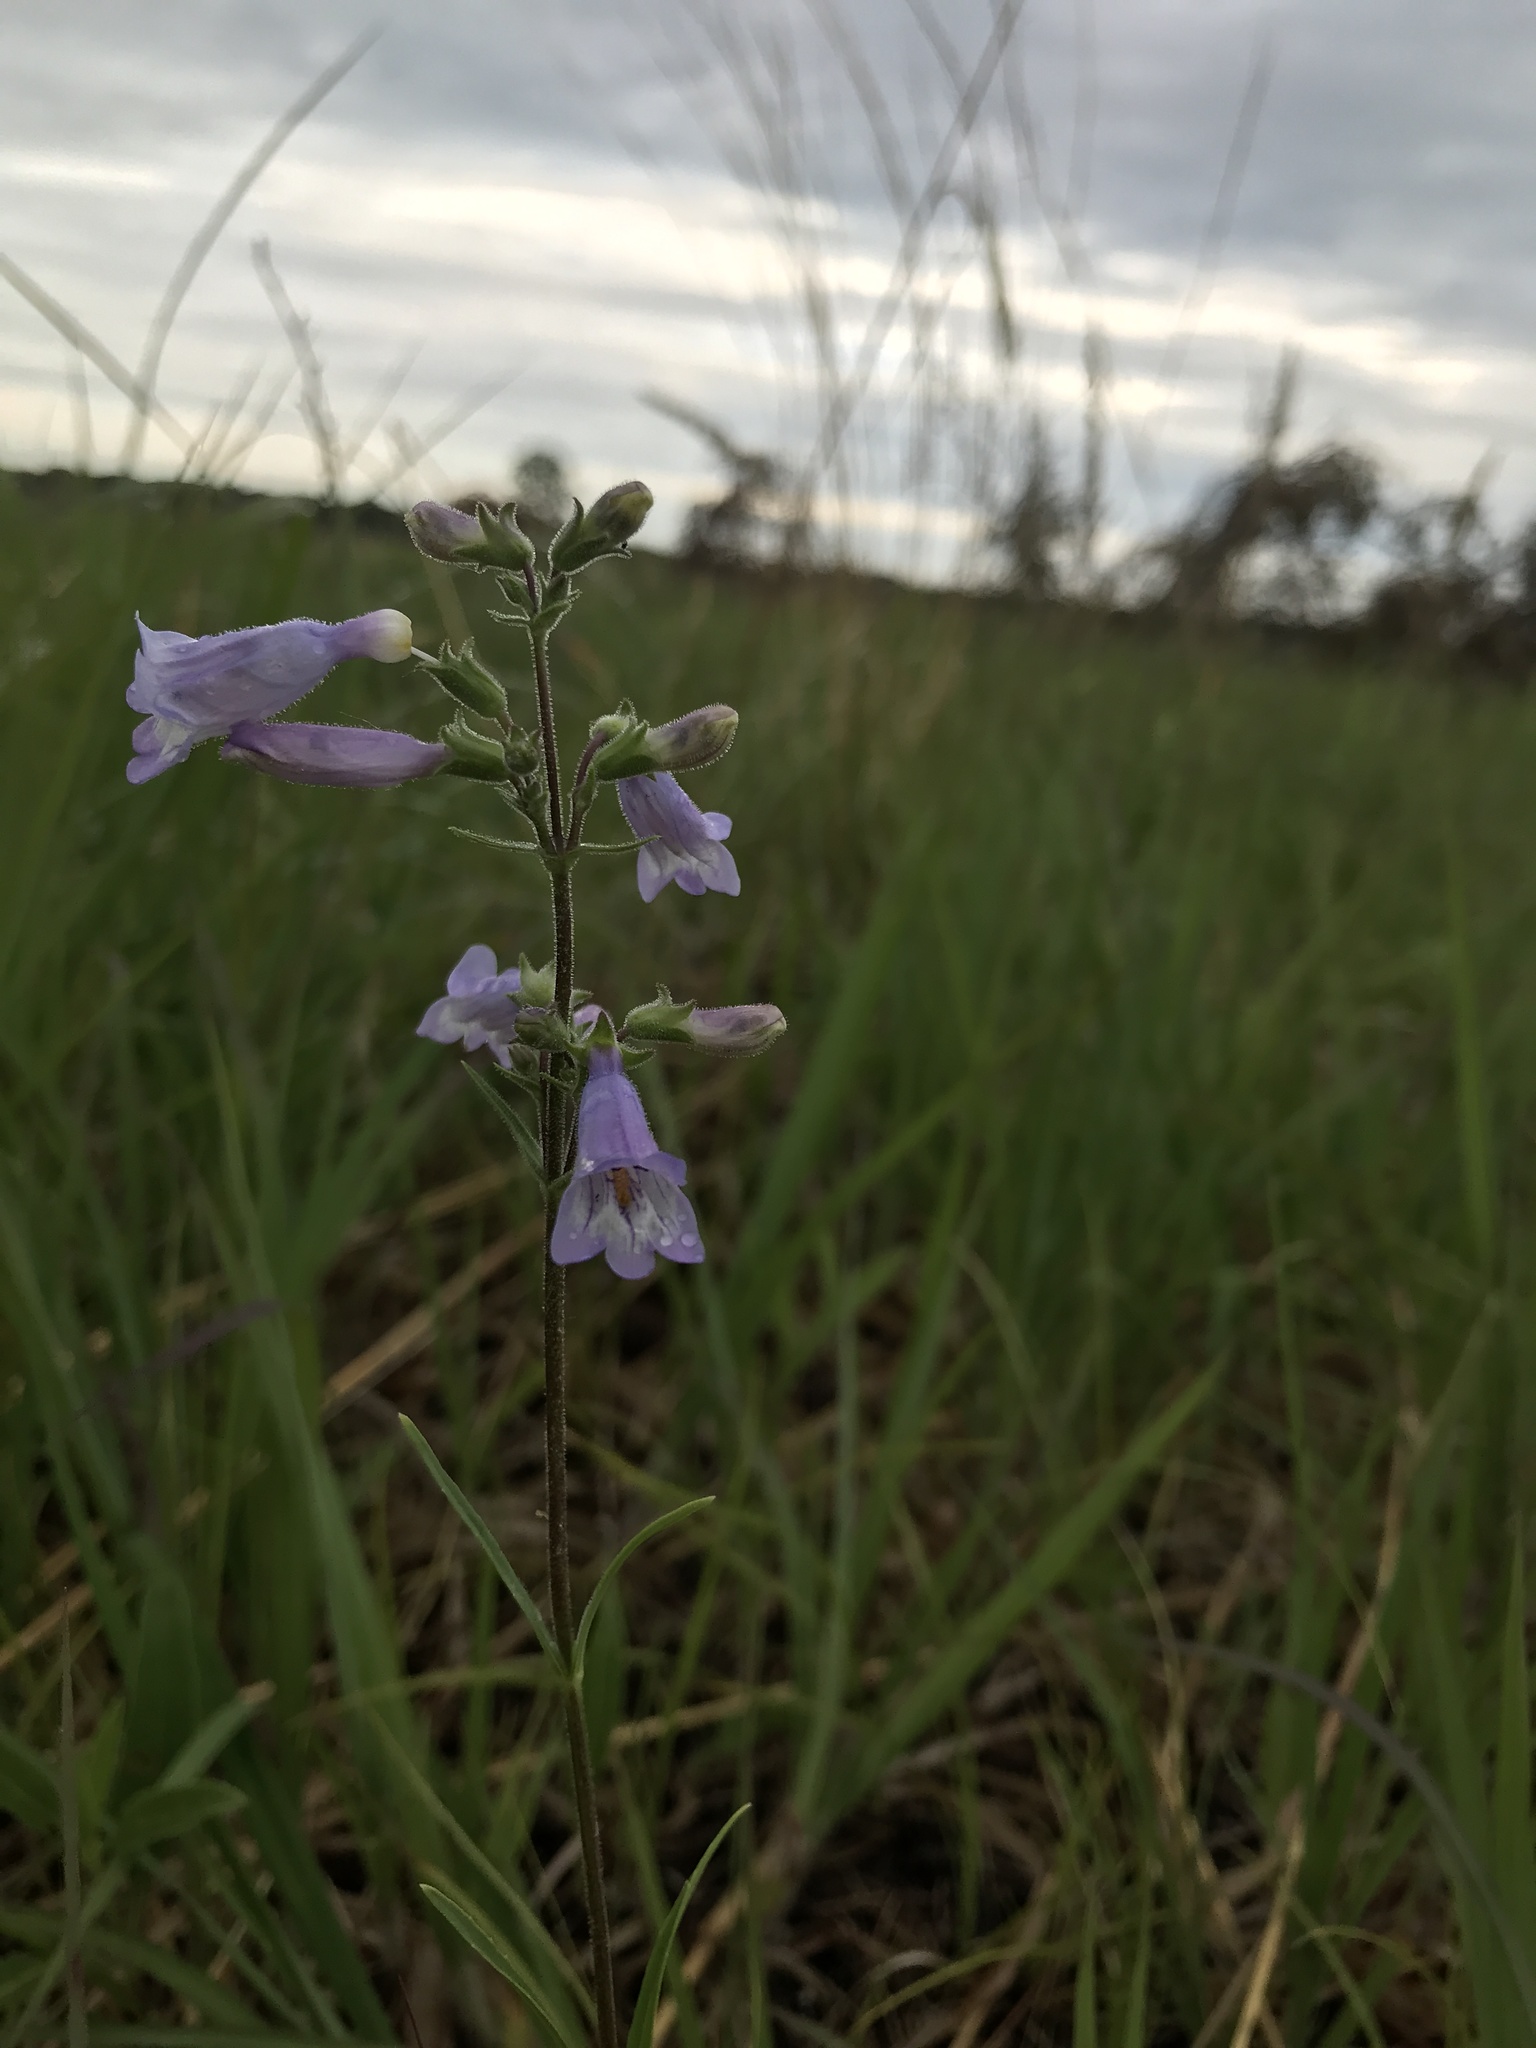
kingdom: Plantae
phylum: Tracheophyta
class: Magnoliopsida
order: Lamiales
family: Plantaginaceae
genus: Penstemon
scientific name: Penstemon gracilis
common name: Slender beardtongue
